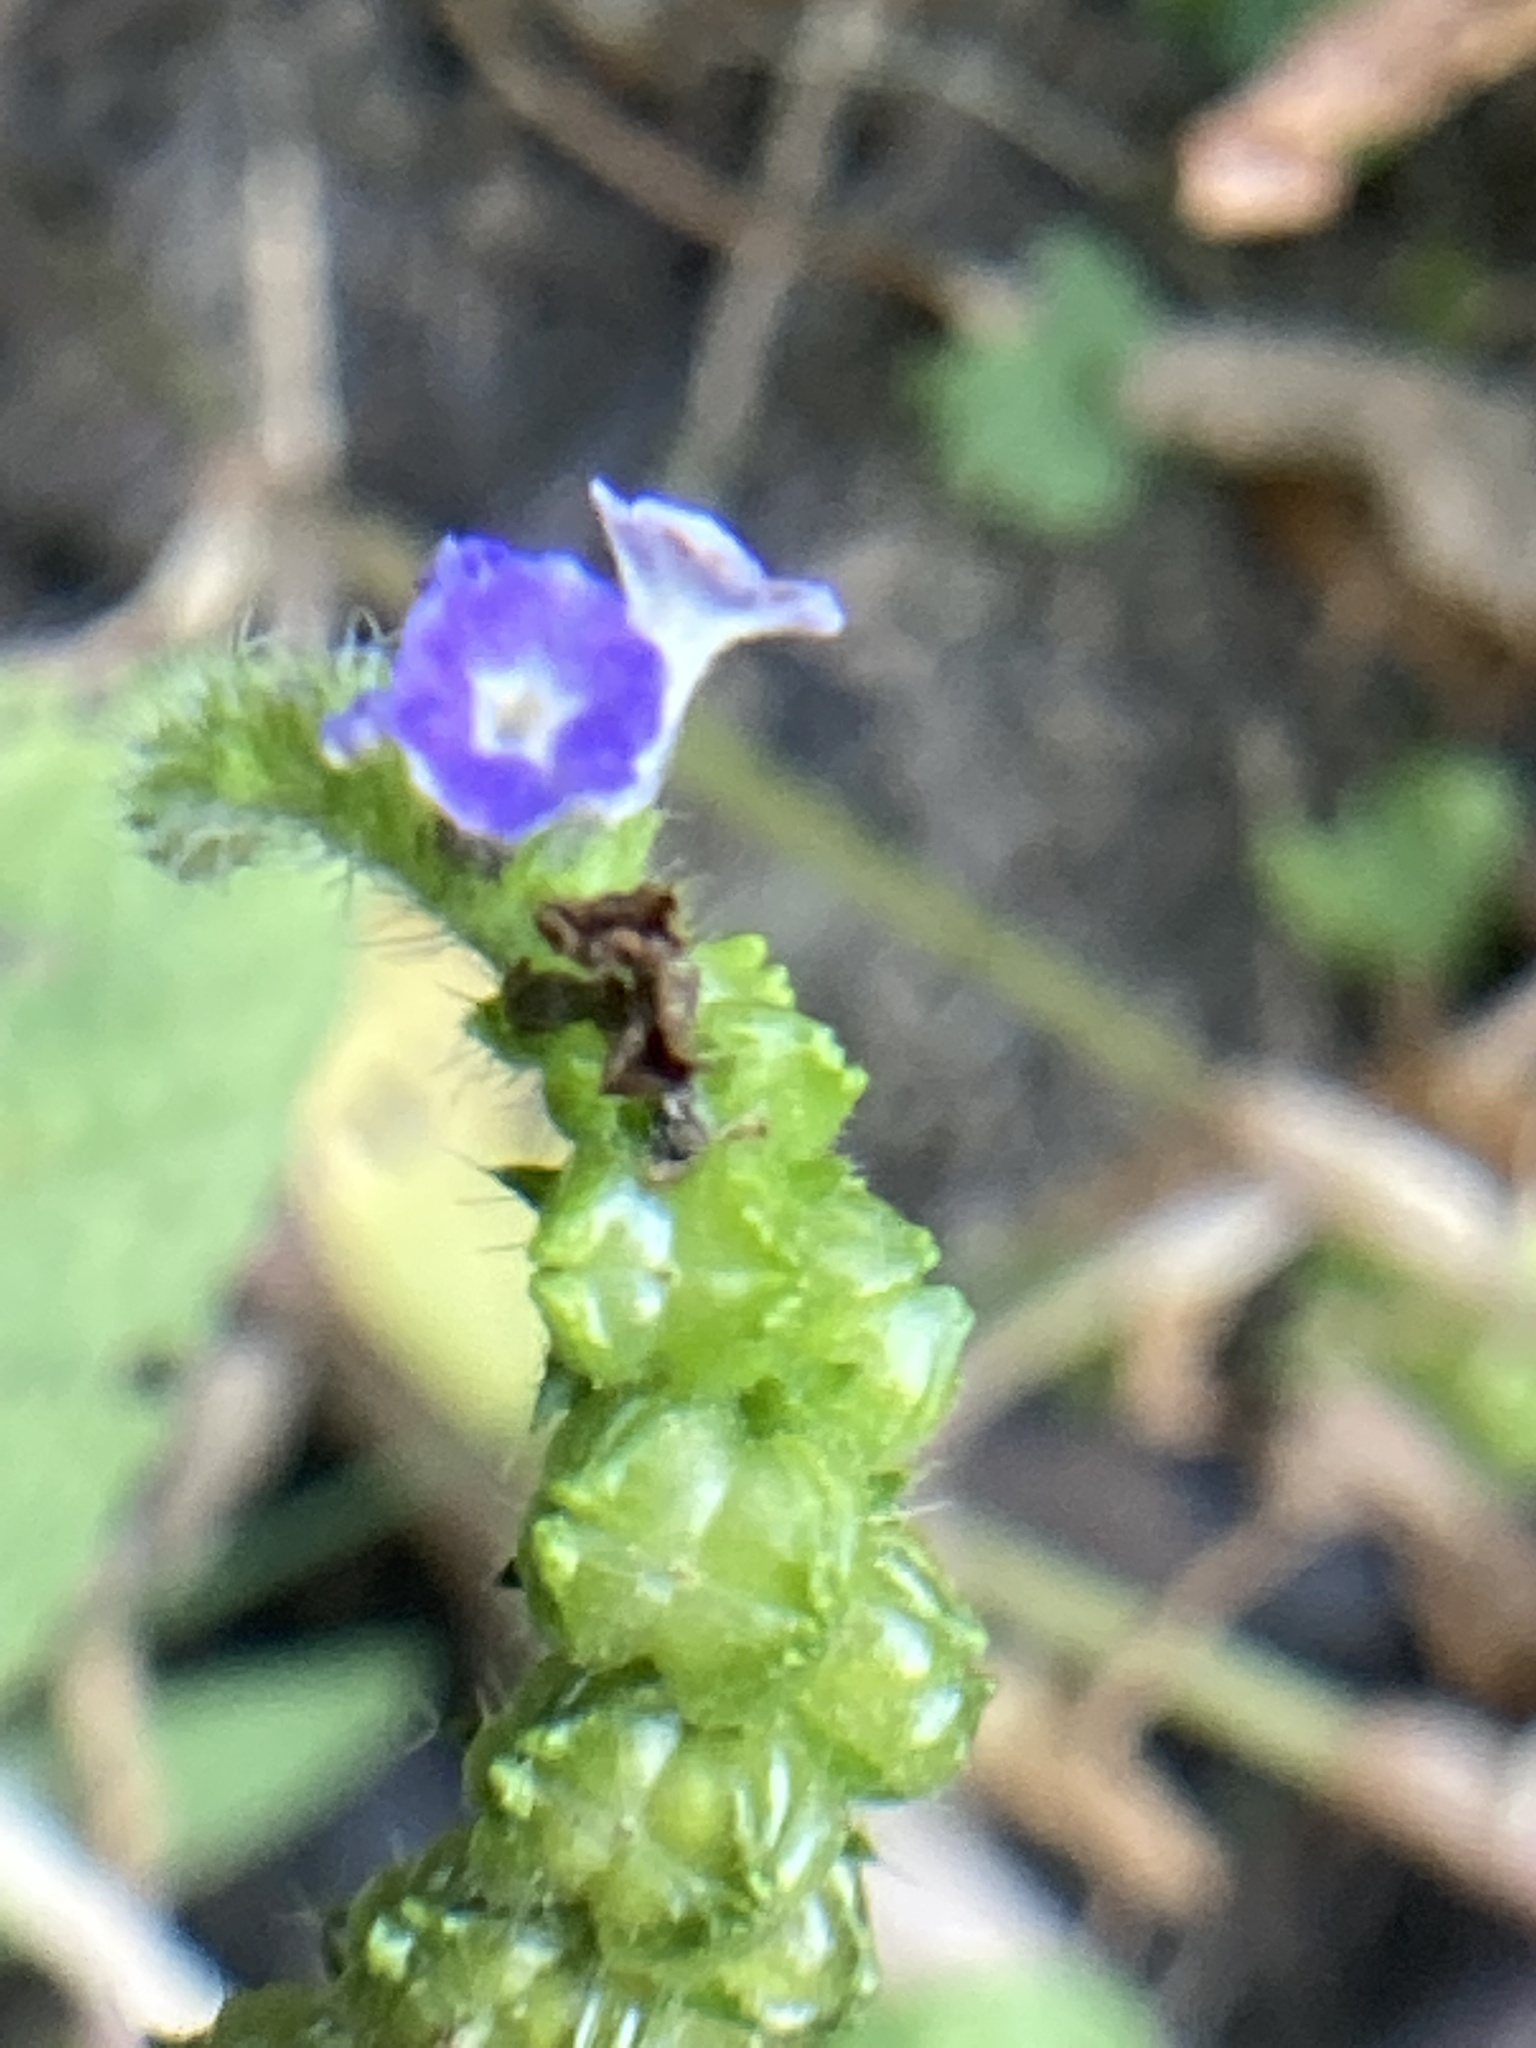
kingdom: Plantae
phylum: Tracheophyta
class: Magnoliopsida
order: Boraginales
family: Heliotropiaceae
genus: Heliotropium
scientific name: Heliotropium indicum
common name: Indian heliotrope
